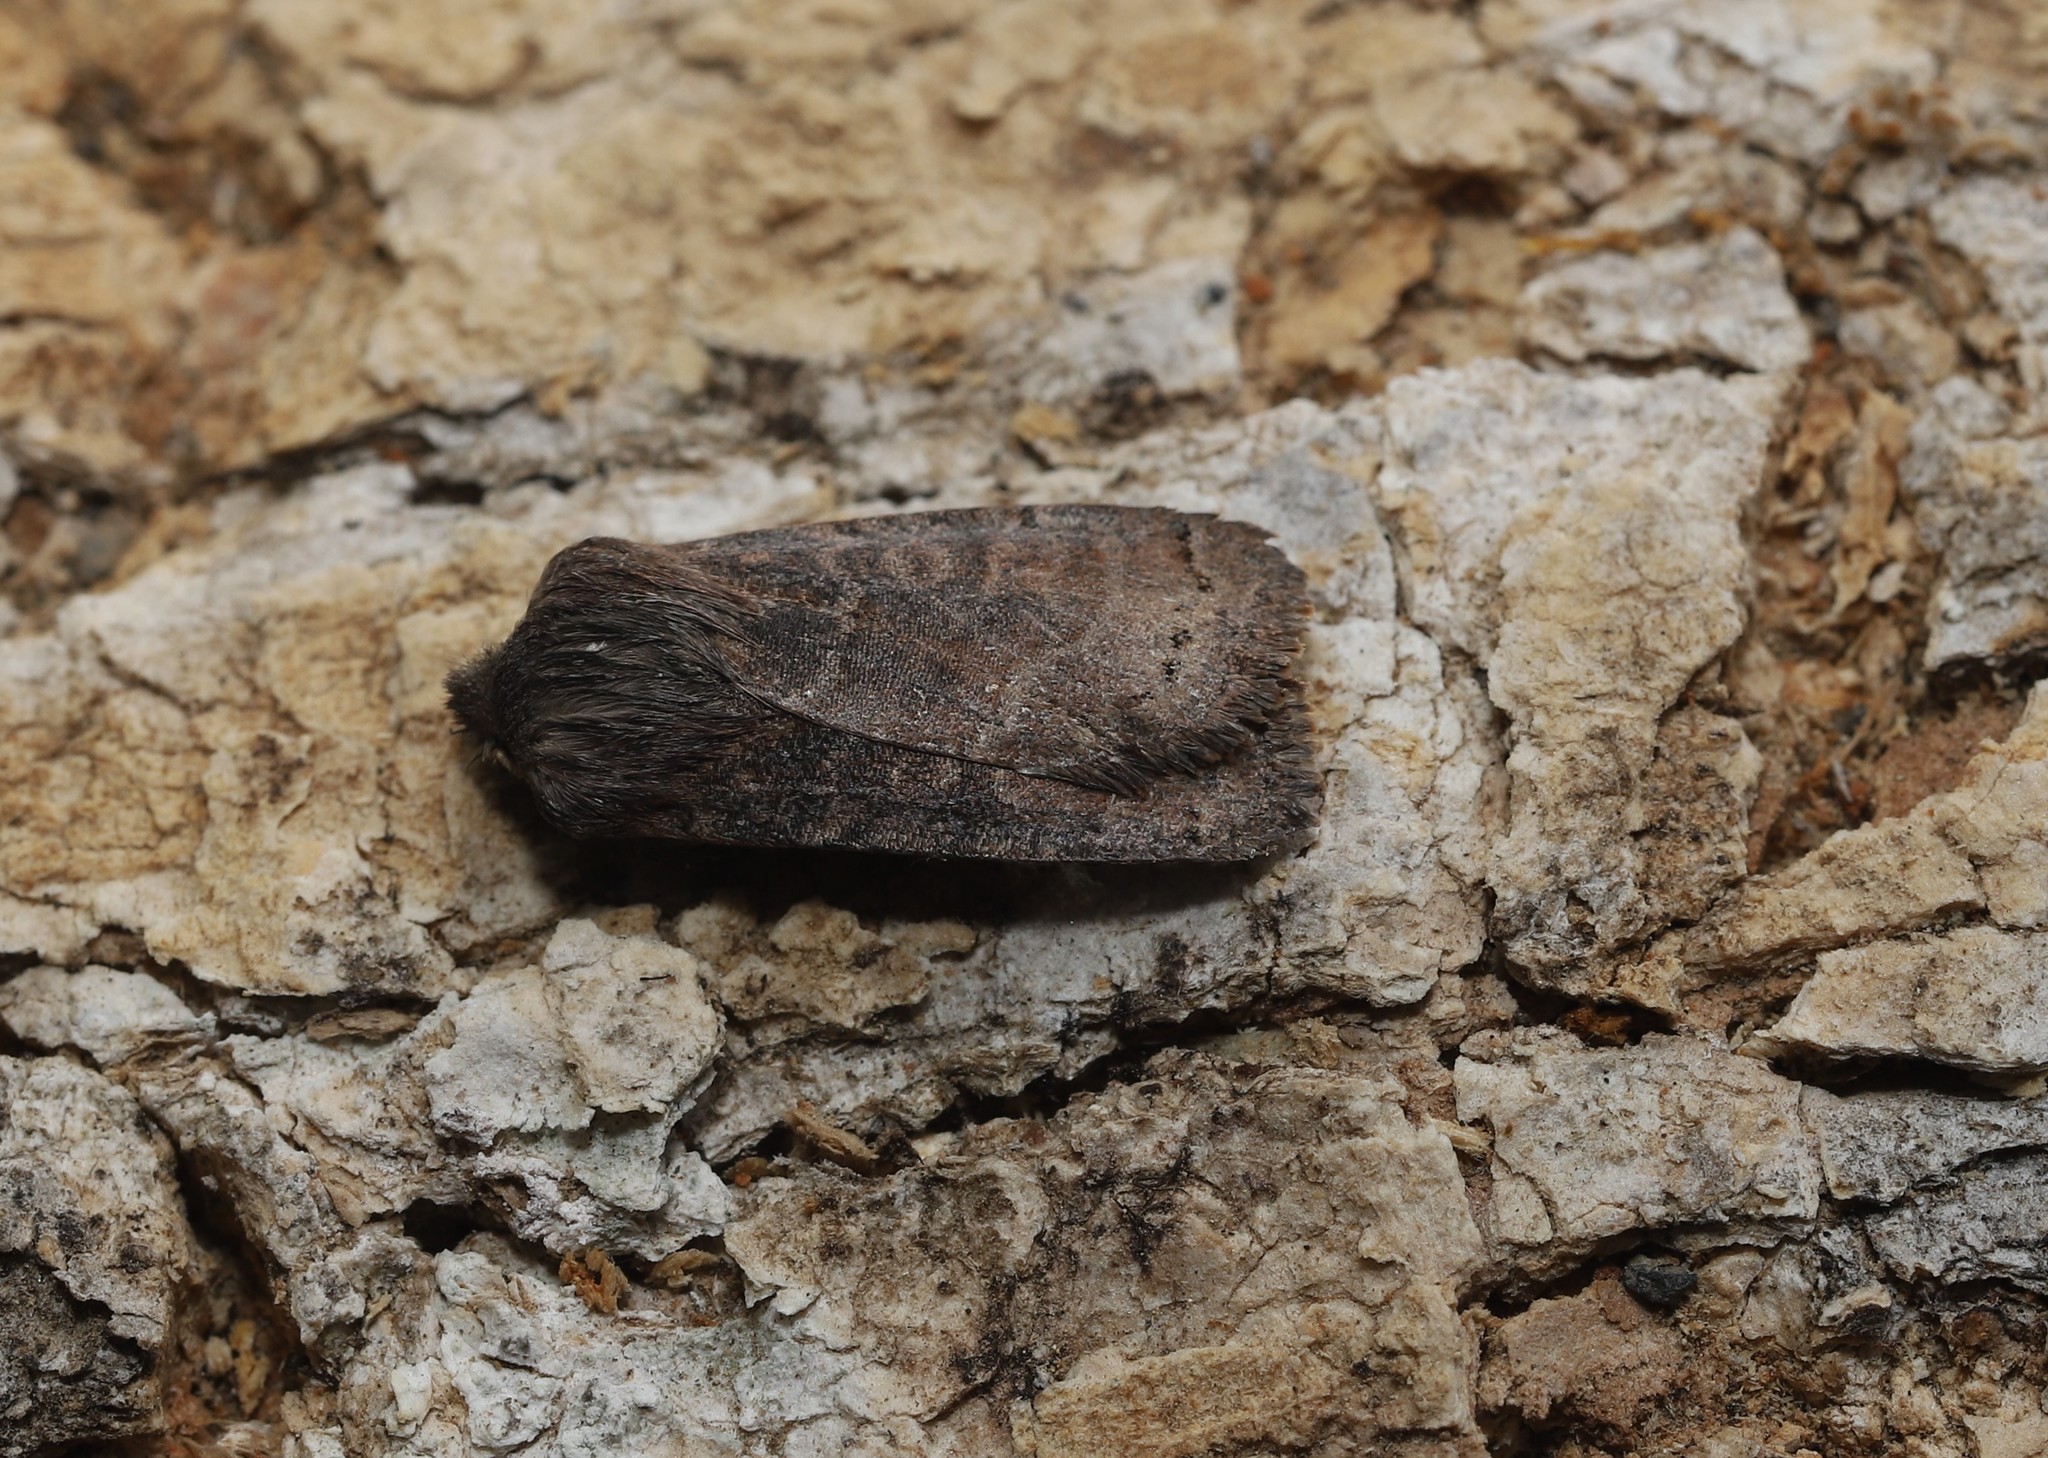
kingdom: Animalia
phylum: Arthropoda
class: Insecta
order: Lepidoptera
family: Noctuidae
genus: Homoglaea
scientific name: Homoglaea hircina
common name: Goat sallow
